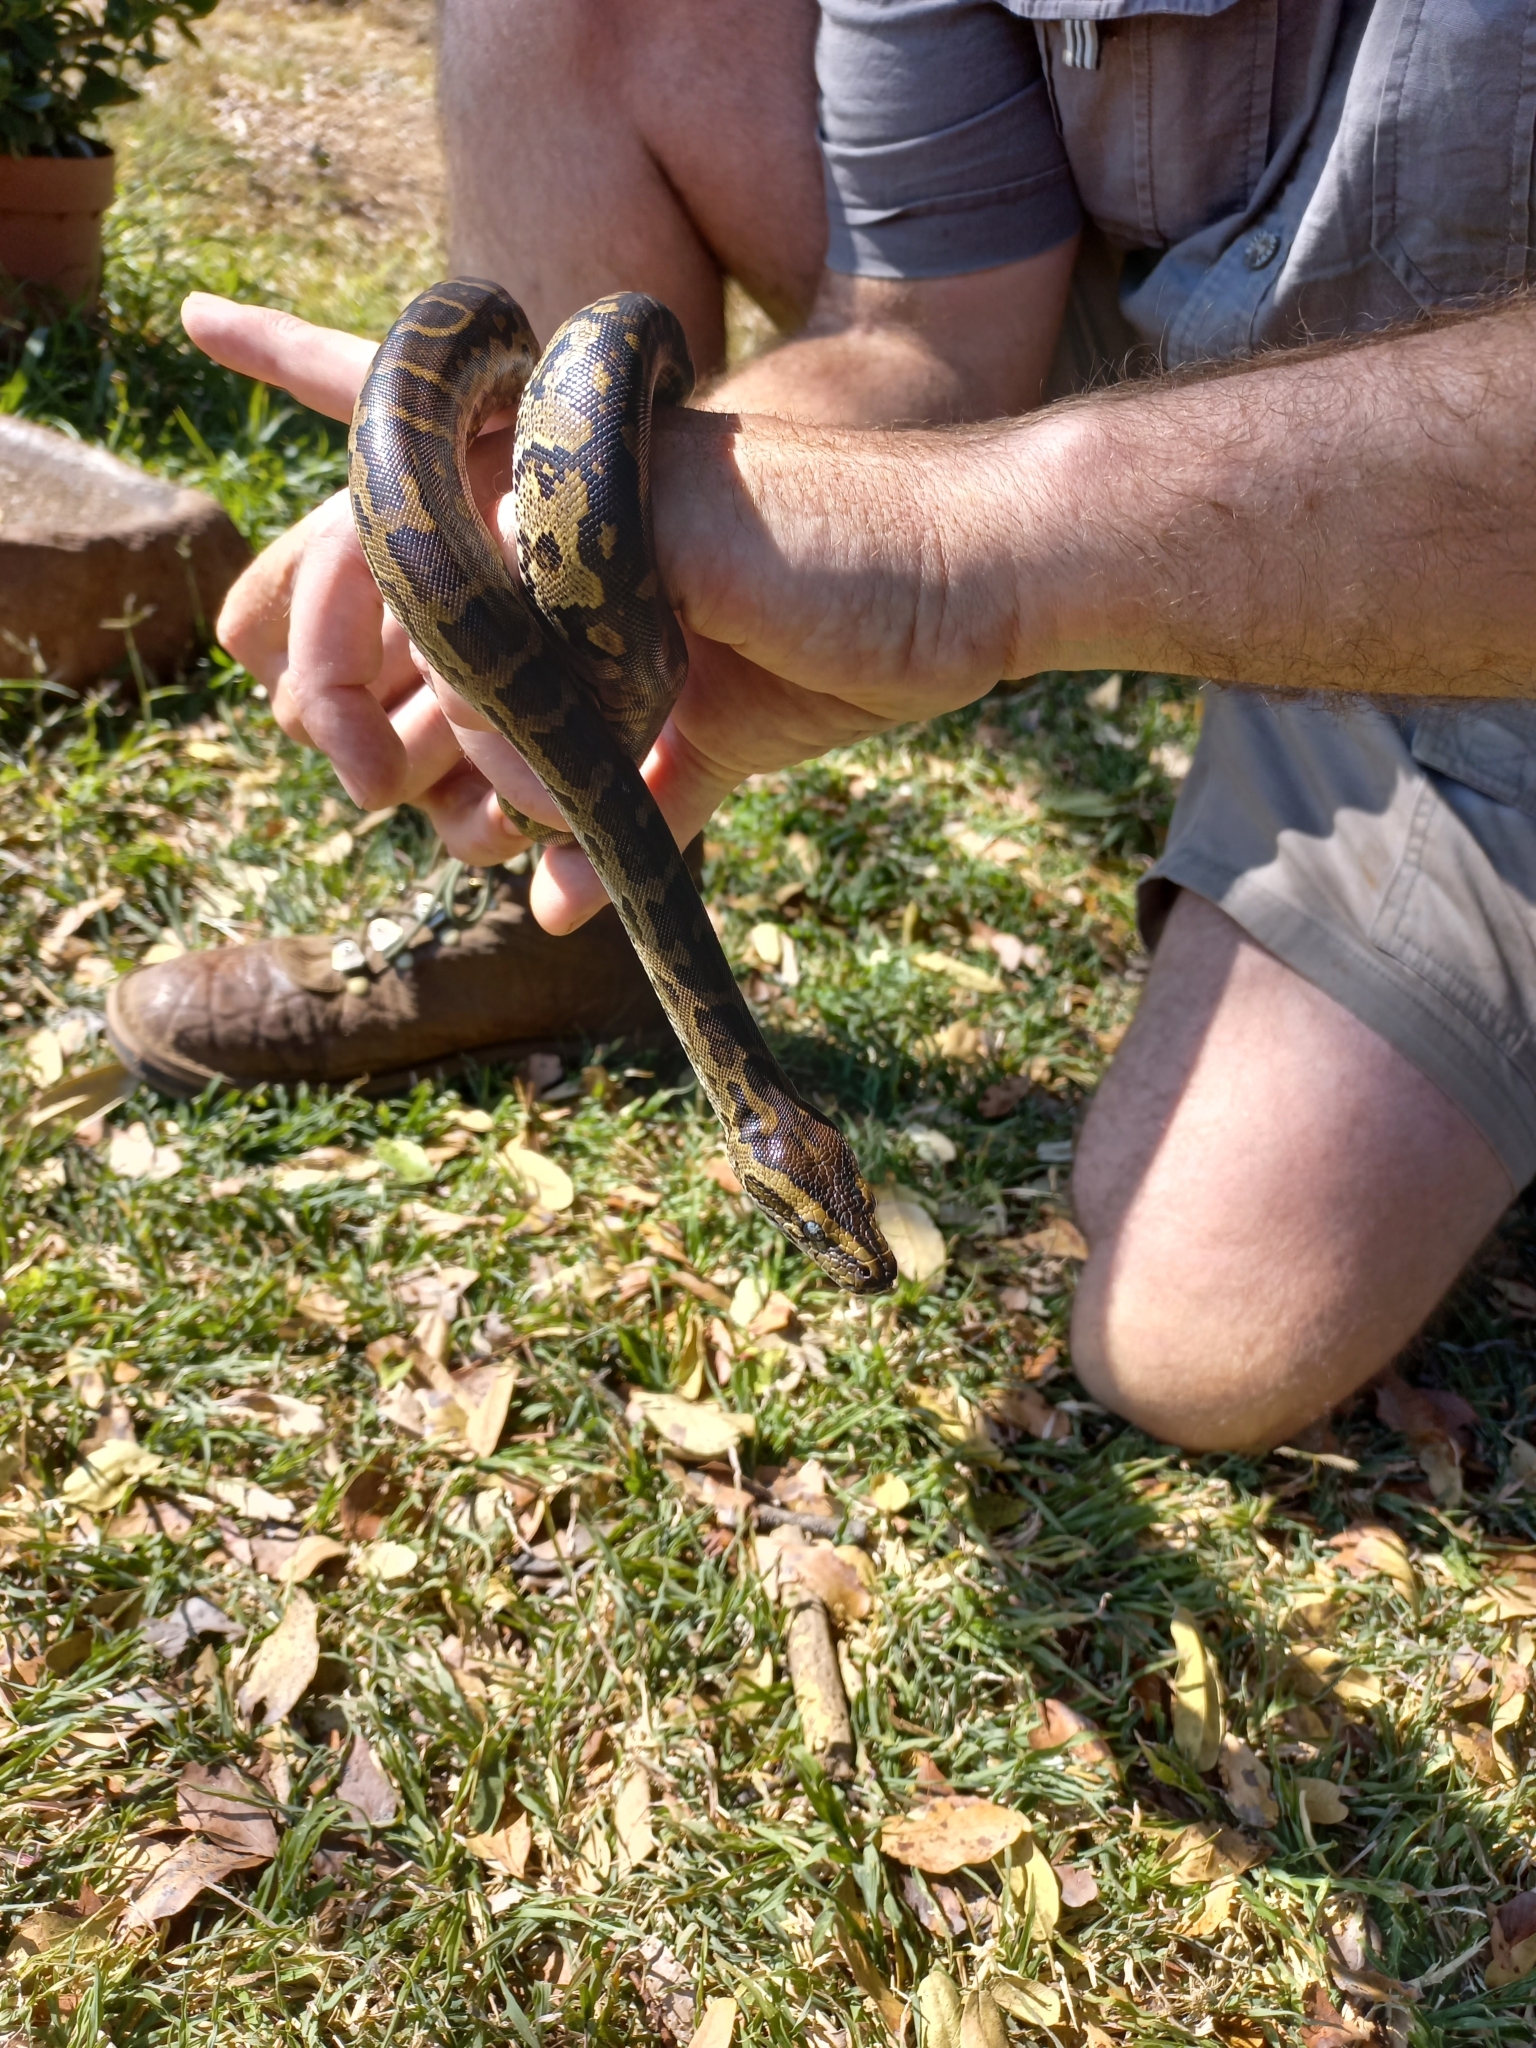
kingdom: Animalia
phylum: Chordata
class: Squamata
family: Pythonidae
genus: Python
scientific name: Python natalensis
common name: Southern african rock python
